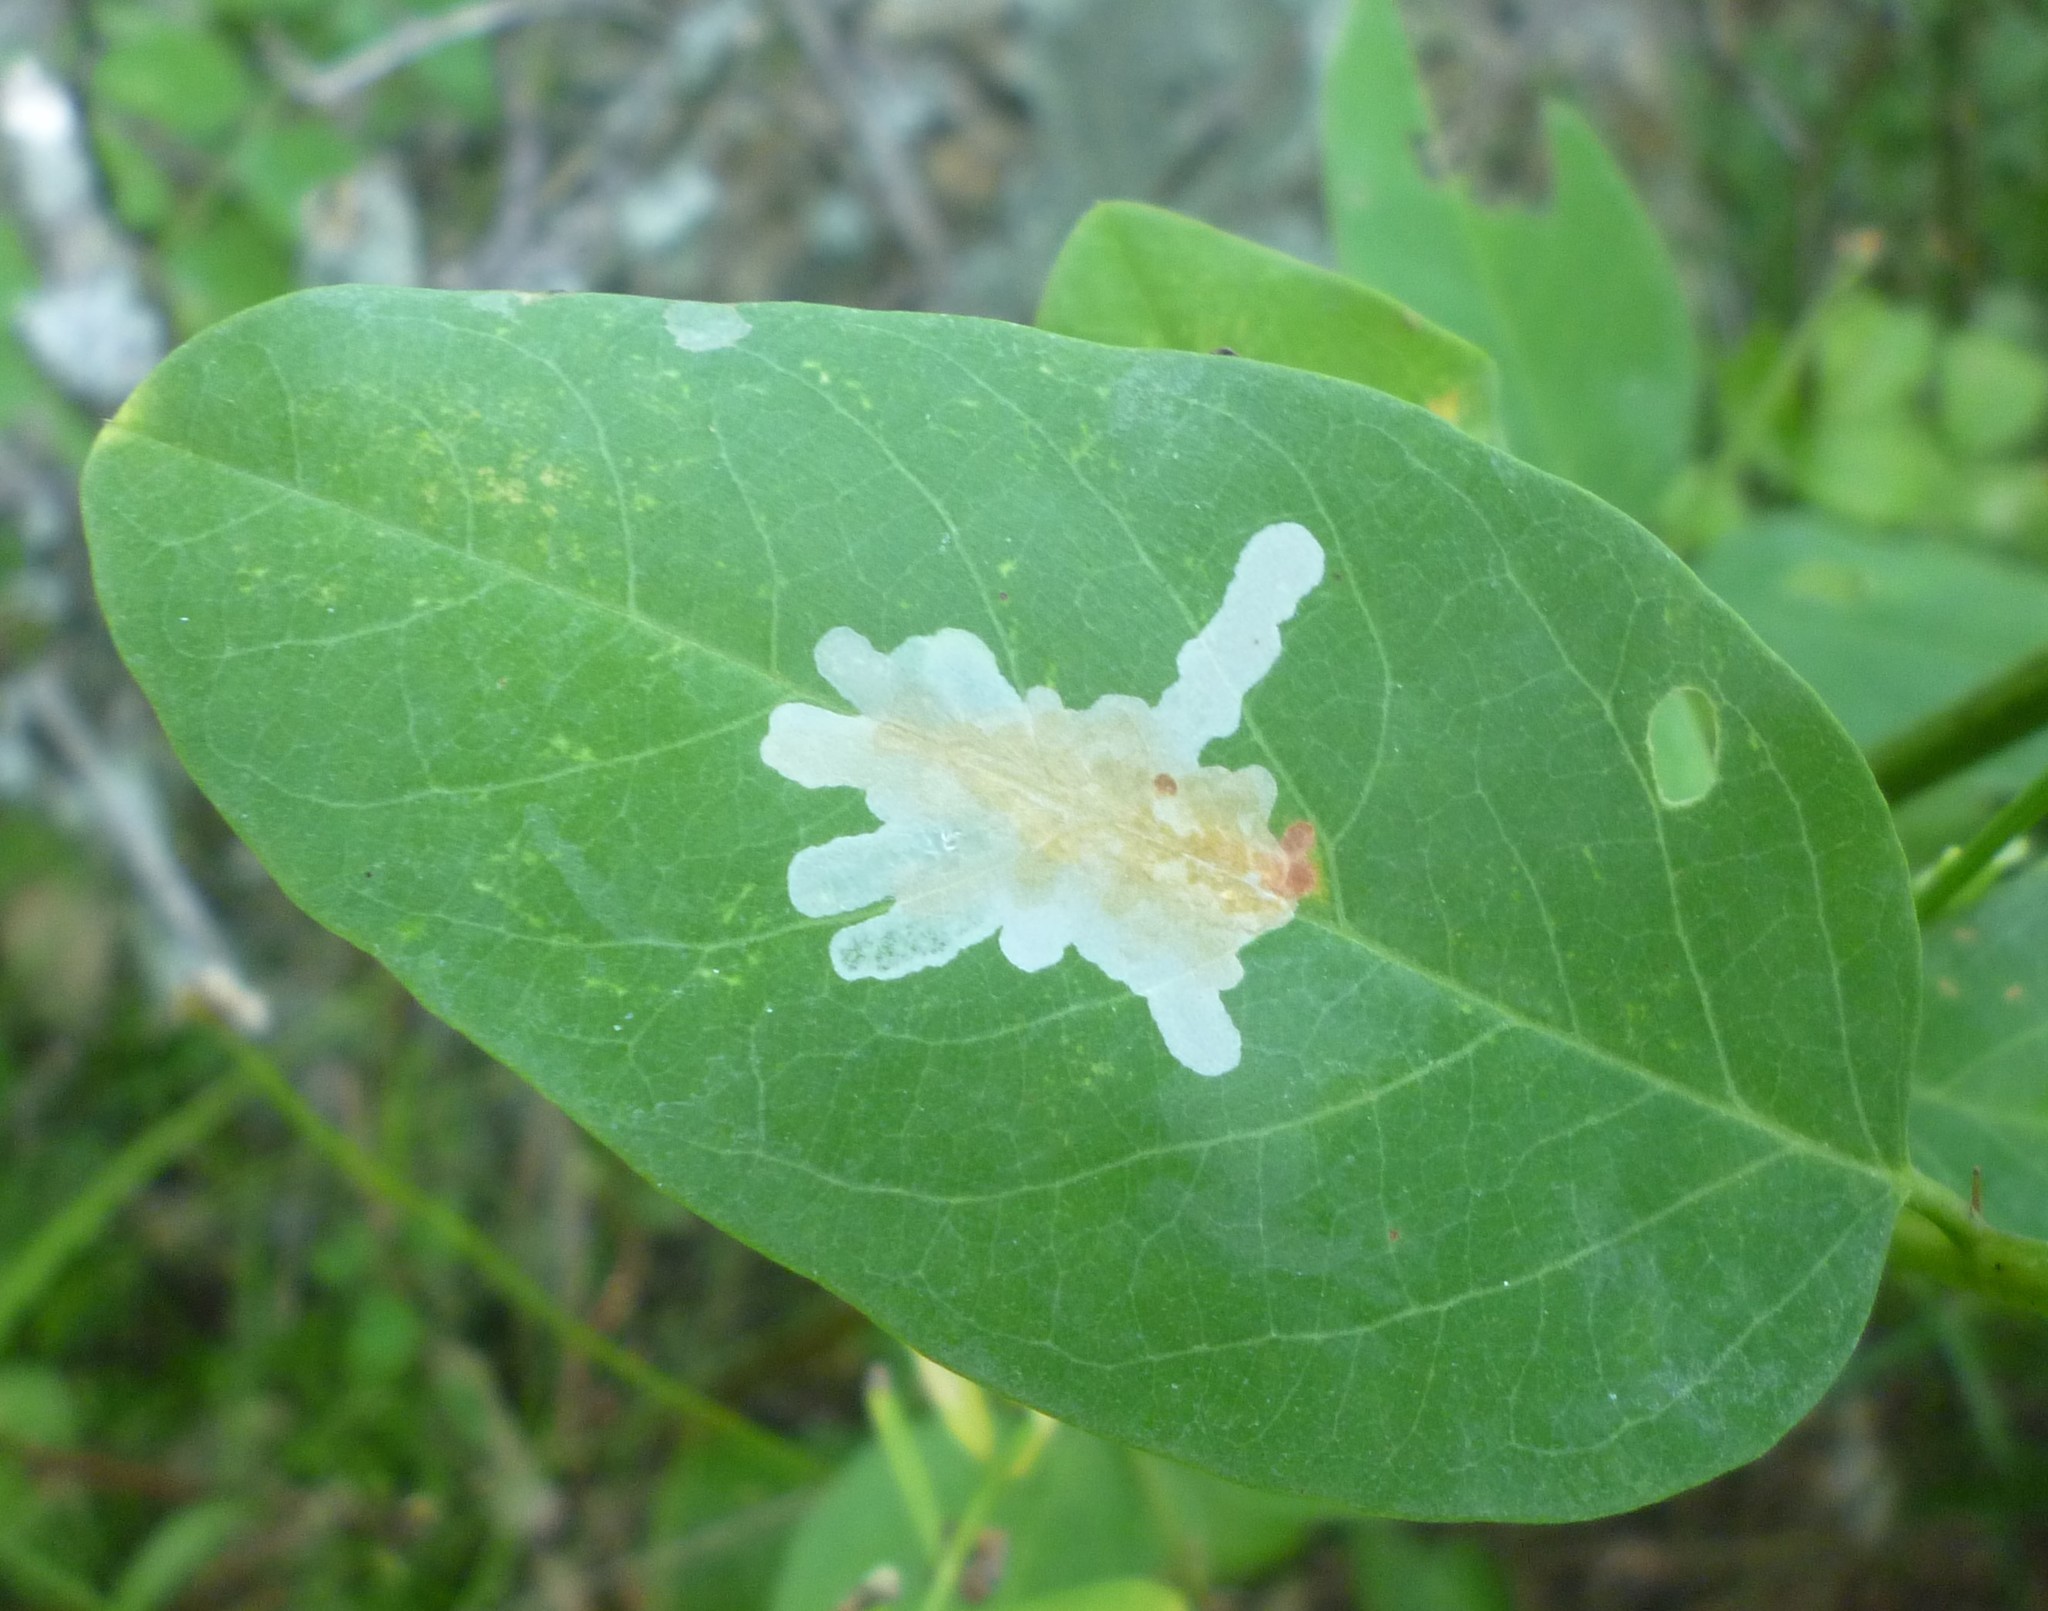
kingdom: Animalia
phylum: Arthropoda
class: Insecta
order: Lepidoptera
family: Gracillariidae
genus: Parectopa
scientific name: Parectopa robiniella
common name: Locust digitate leafminer
